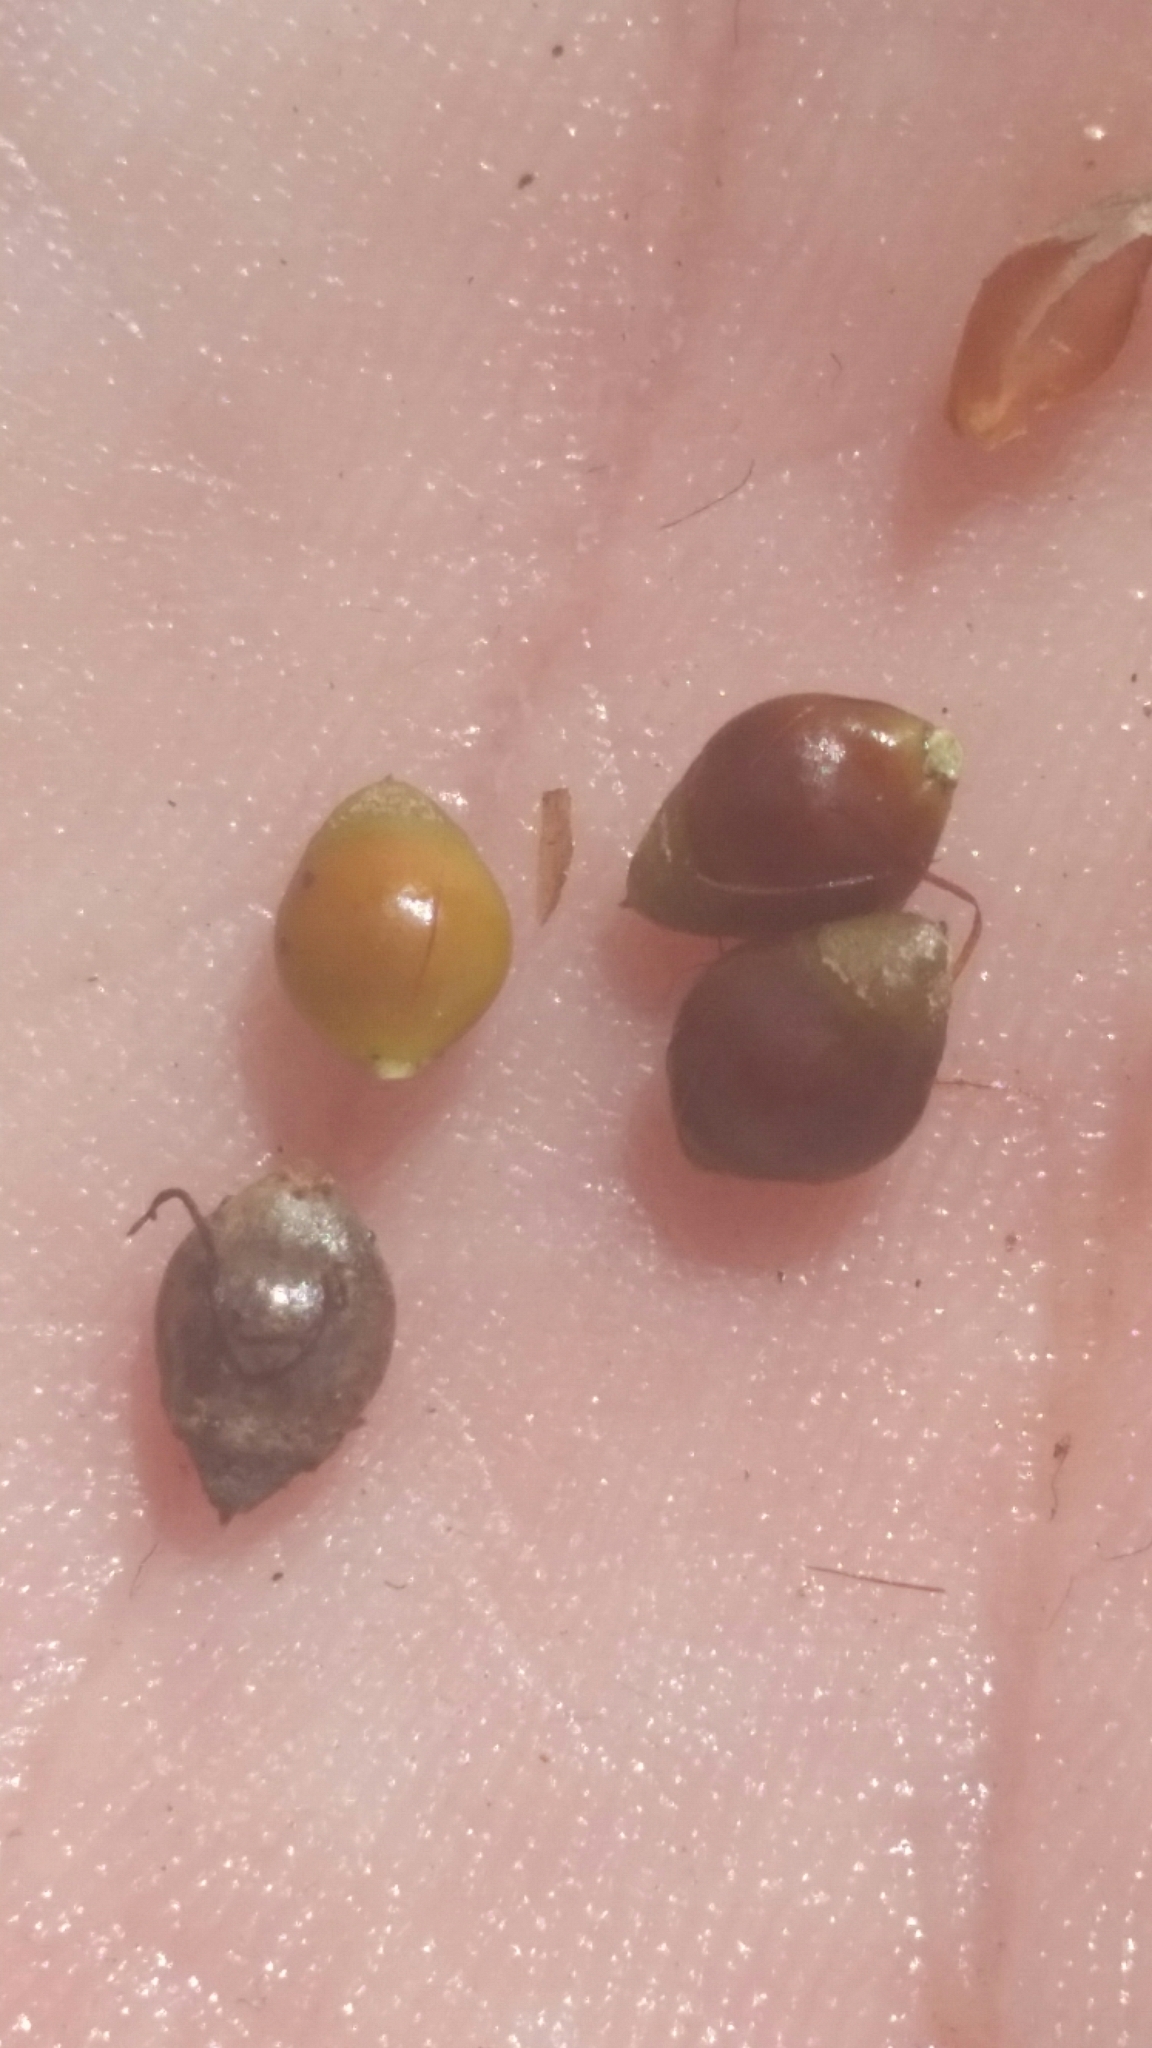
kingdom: Plantae
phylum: Tracheophyta
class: Liliopsida
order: Poales
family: Cyperaceae
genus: Rhynchospora
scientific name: Rhynchospora megalocarpa
